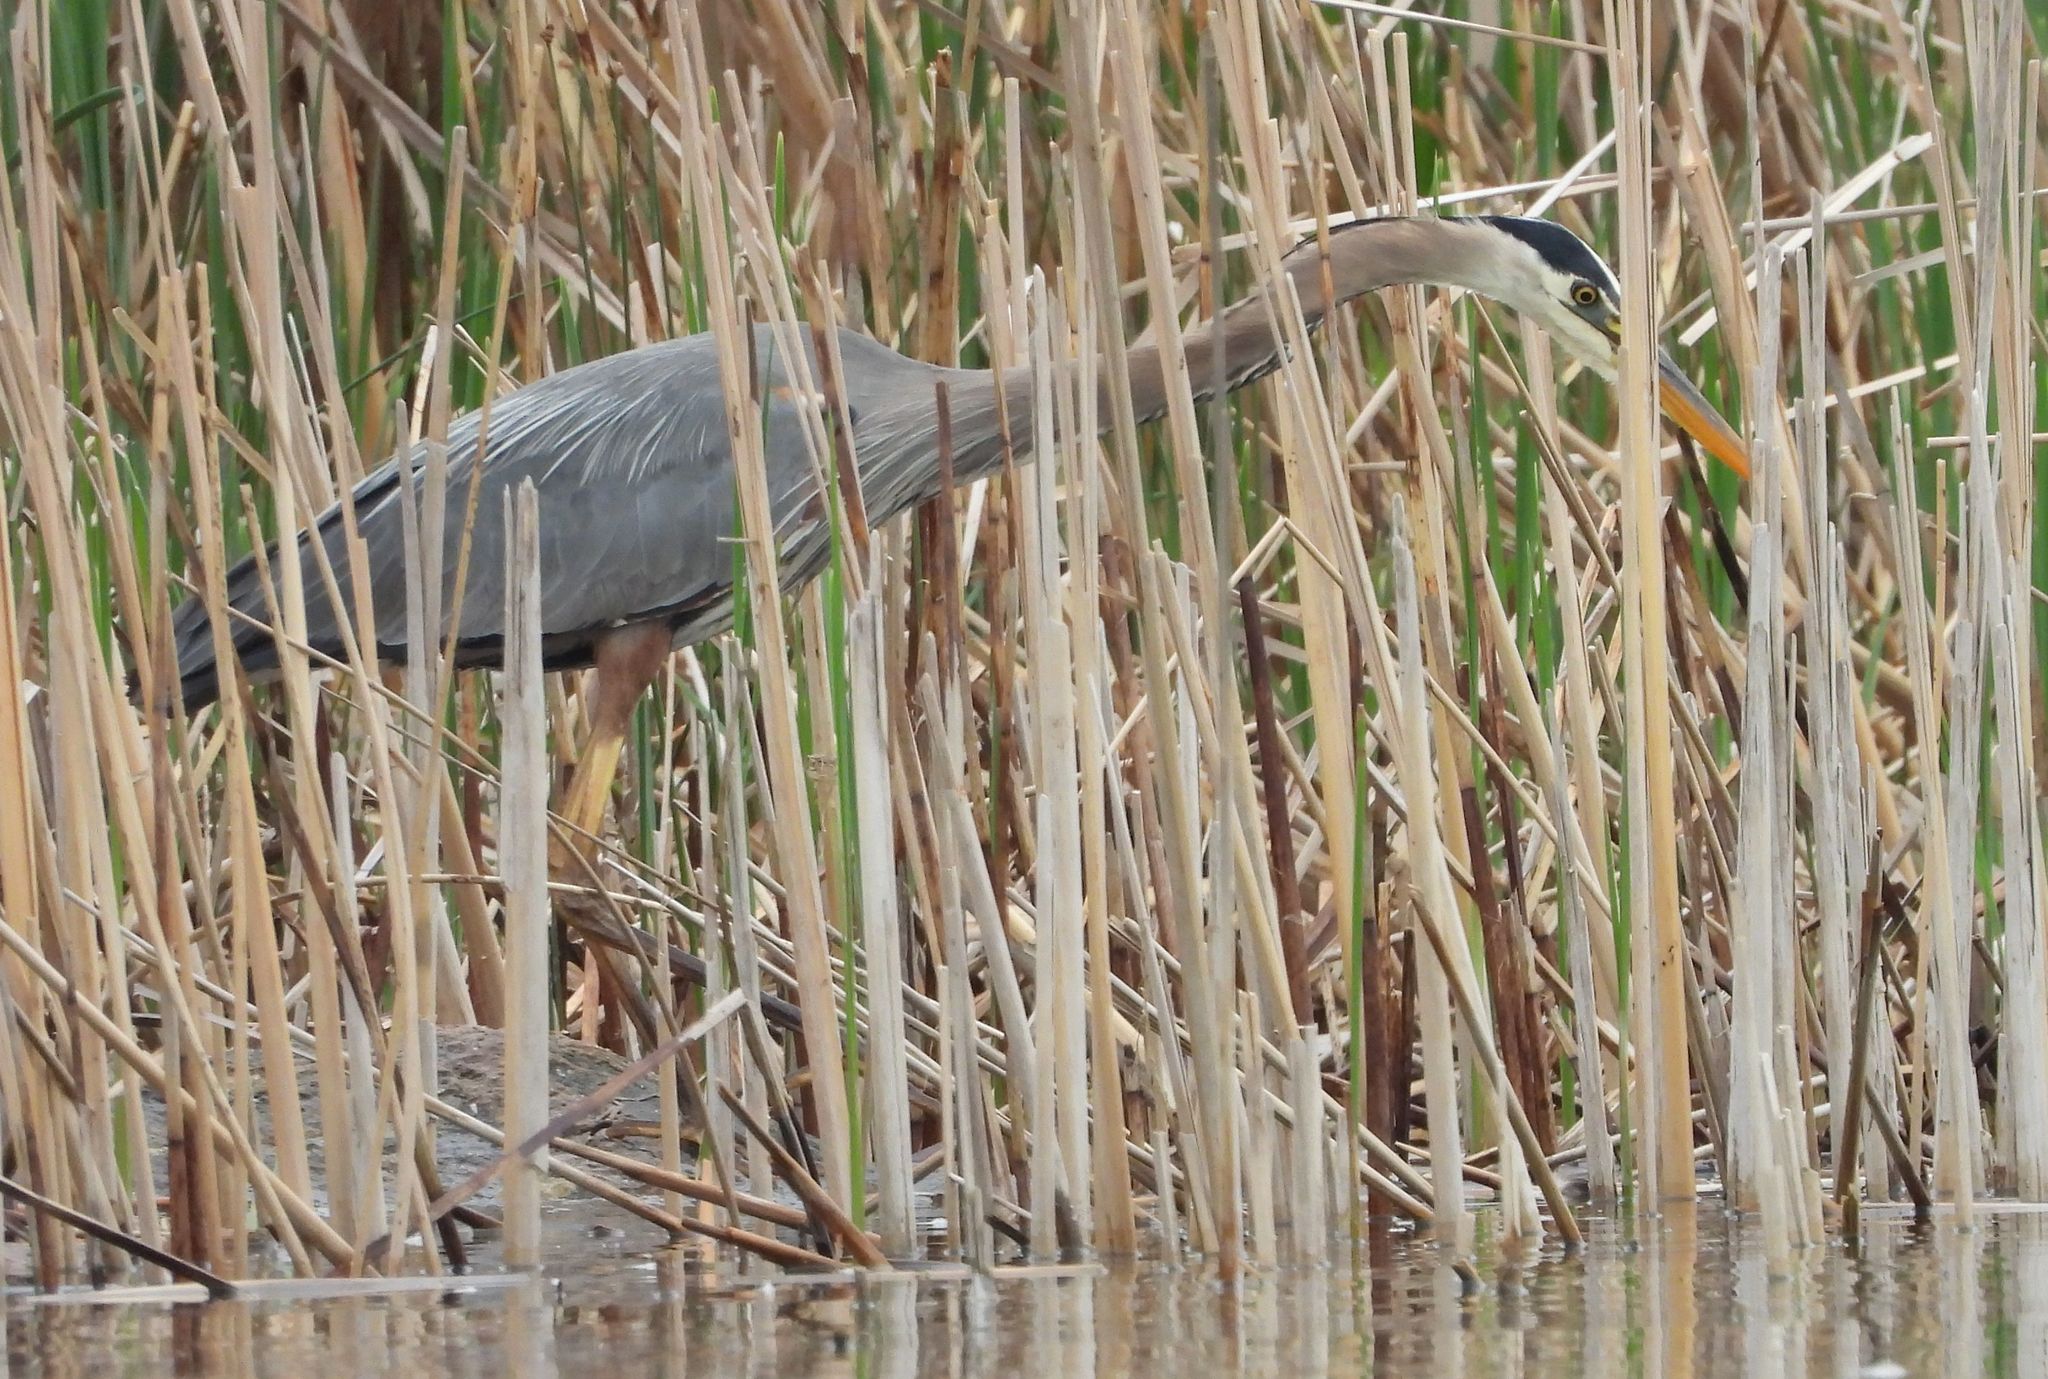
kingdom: Animalia
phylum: Chordata
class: Aves
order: Pelecaniformes
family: Ardeidae
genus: Ardea
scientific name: Ardea herodias
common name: Great blue heron
